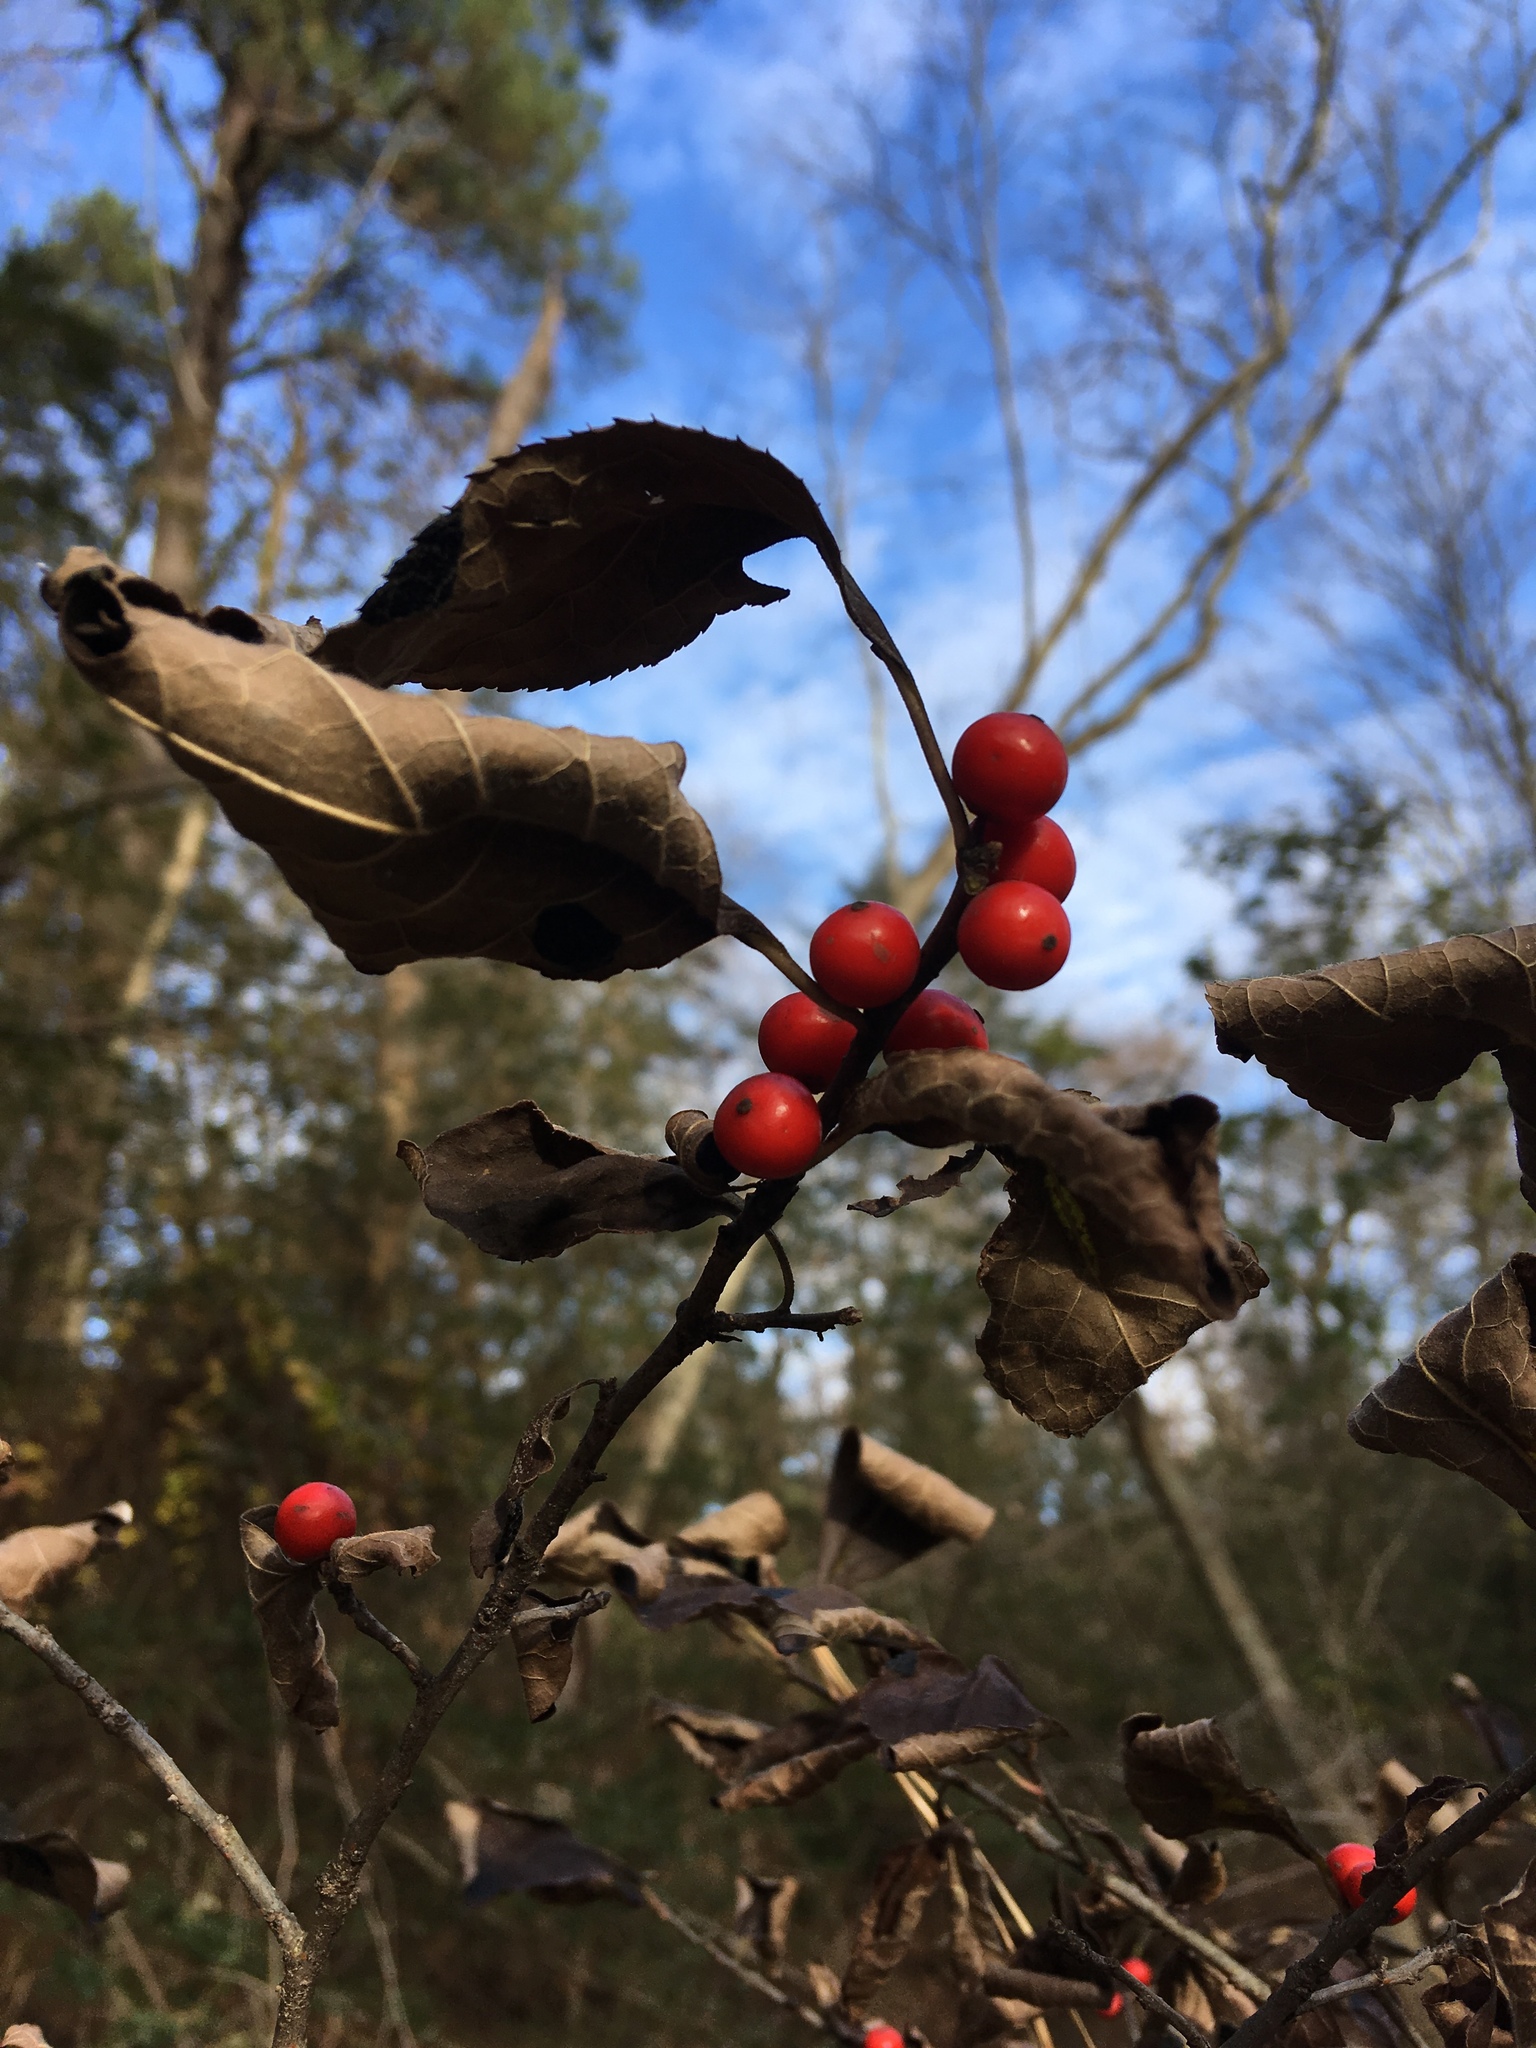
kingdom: Plantae
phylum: Tracheophyta
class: Magnoliopsida
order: Aquifoliales
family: Aquifoliaceae
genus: Ilex
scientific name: Ilex verticillata
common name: Virginia winterberry
